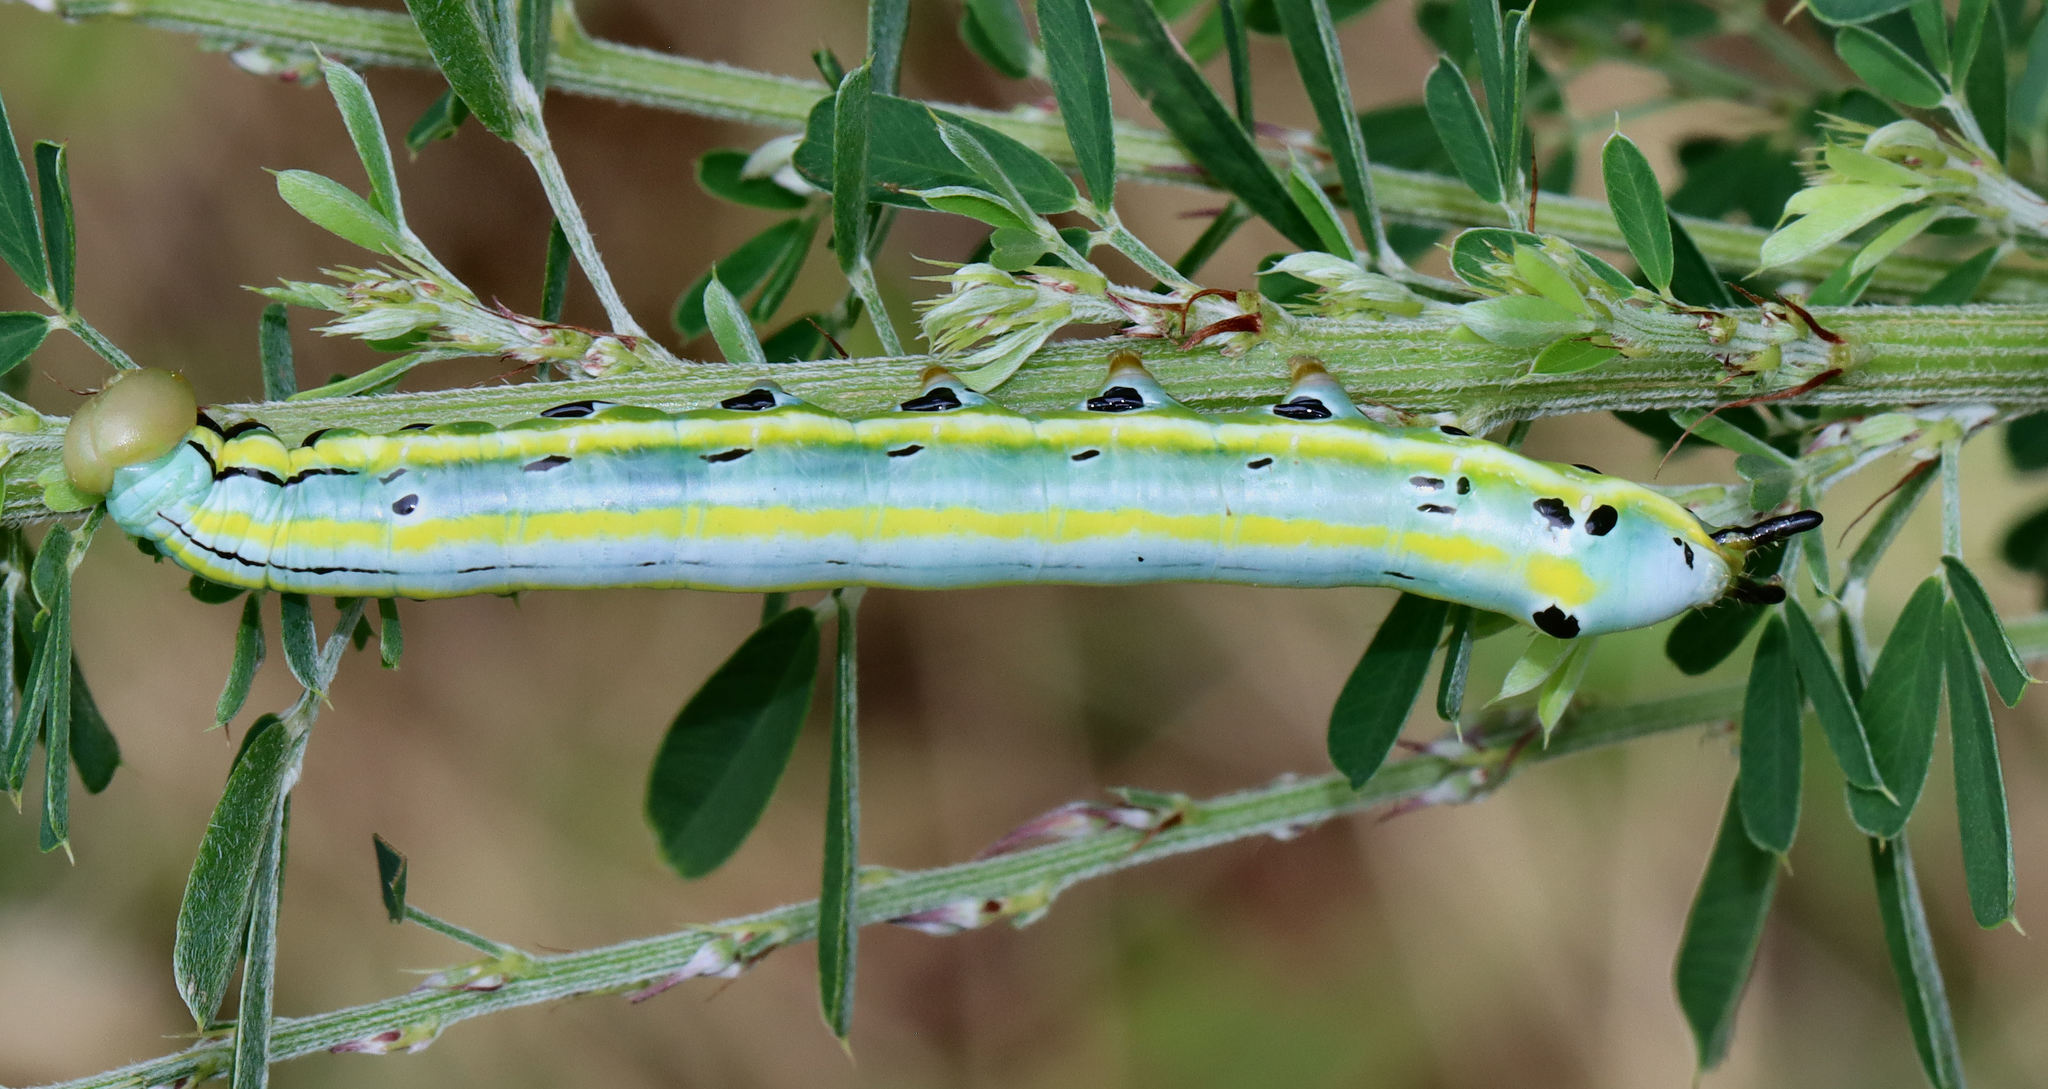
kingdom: Animalia
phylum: Arthropoda
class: Insecta
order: Lepidoptera
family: Notodontidae
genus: Dasylophia
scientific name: Dasylophia anguina
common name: Black-spotted prominent
